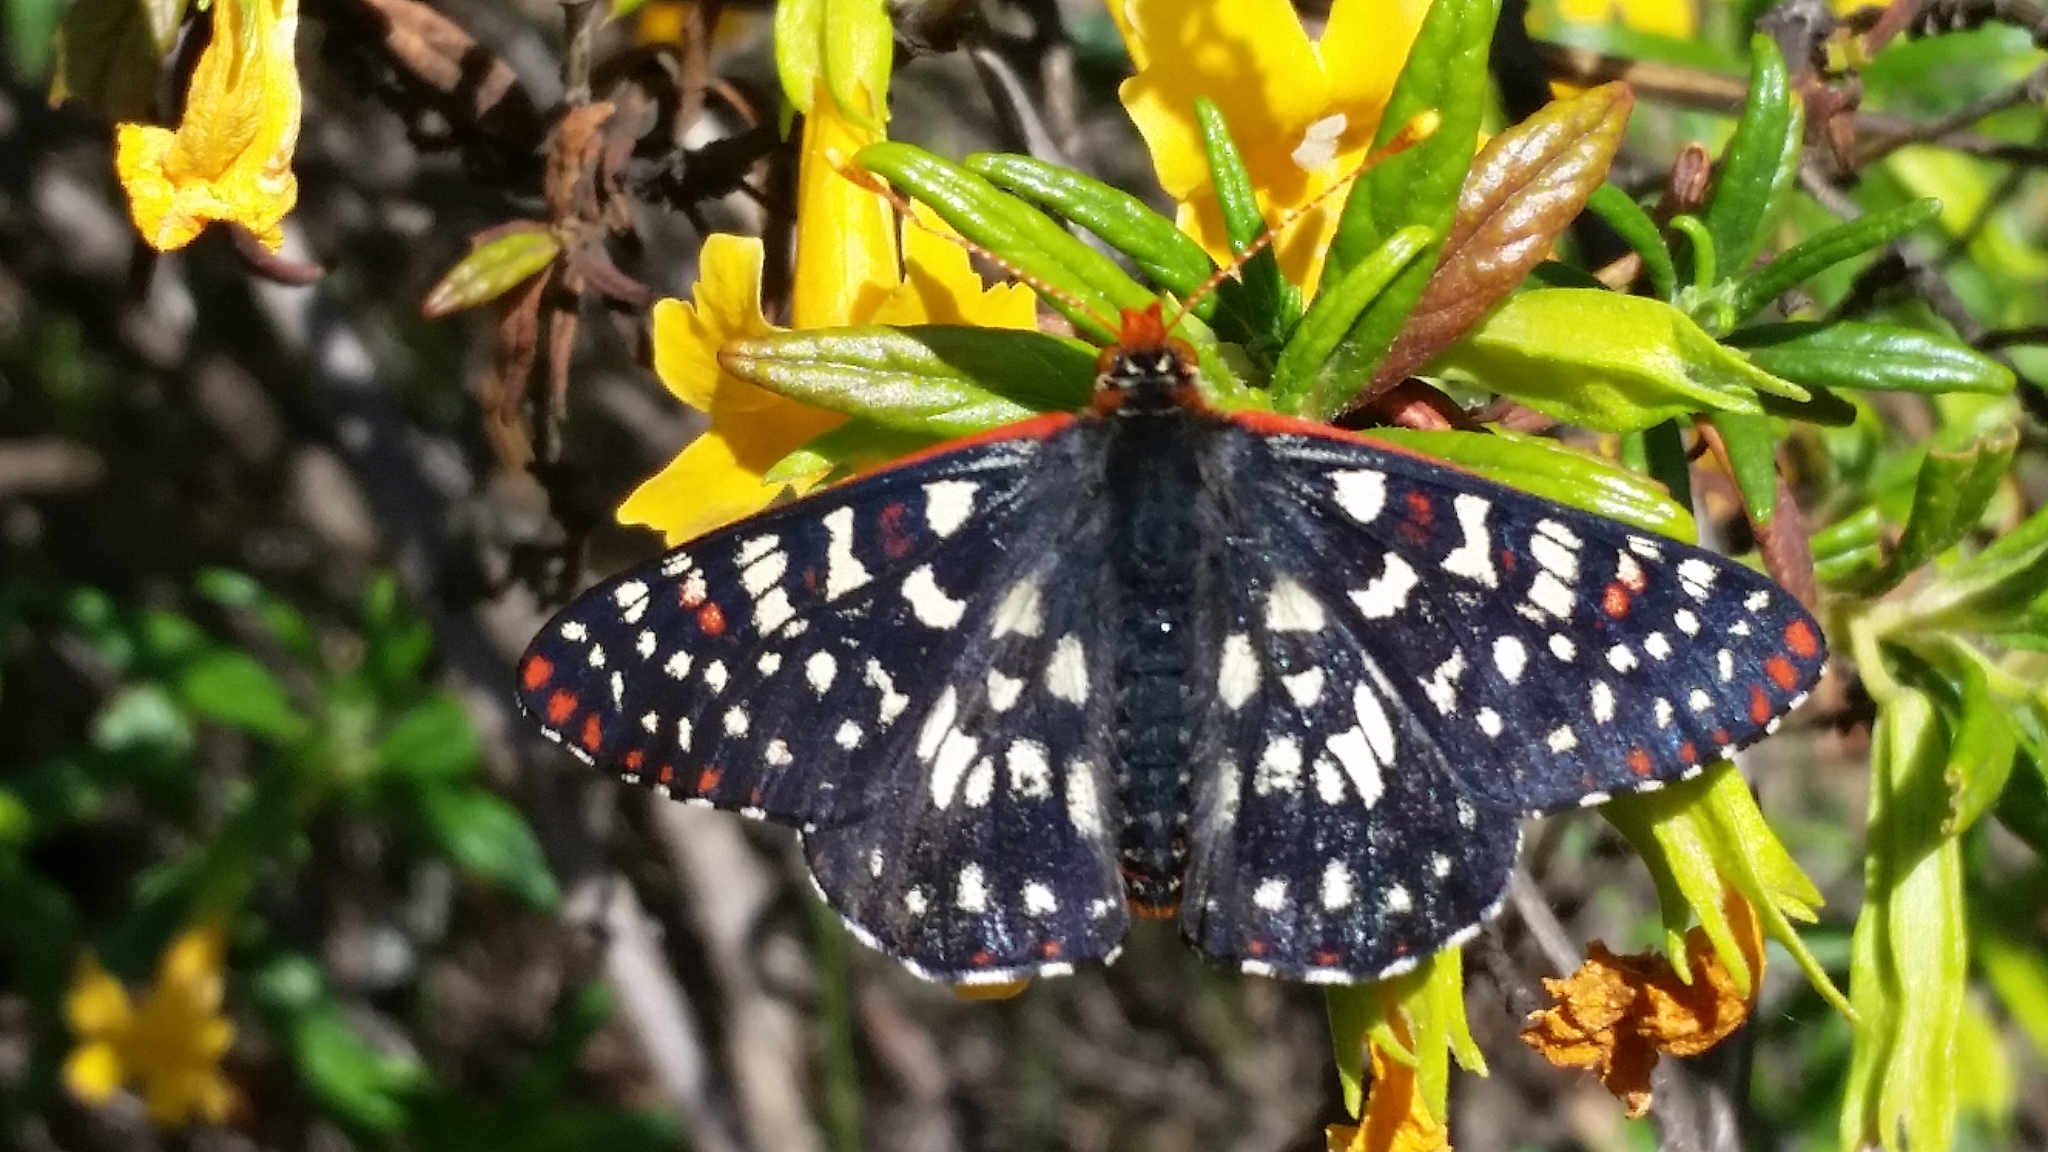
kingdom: Animalia
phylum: Arthropoda
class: Insecta
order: Lepidoptera
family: Nymphalidae
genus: Occidryas
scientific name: Occidryas chalcedona
